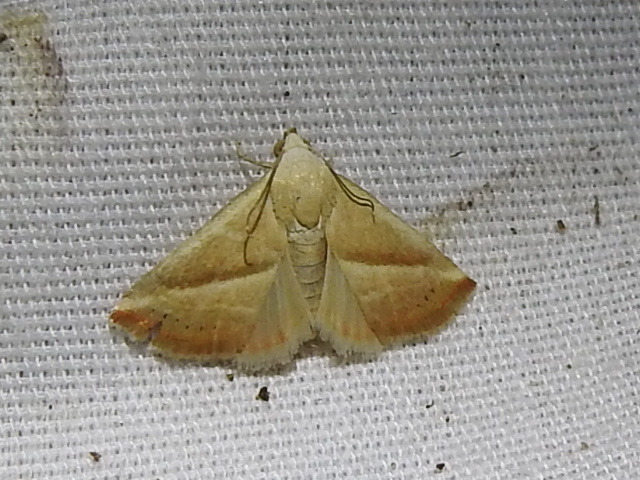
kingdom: Animalia
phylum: Arthropoda
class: Insecta
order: Lepidoptera
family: Noctuidae
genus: Eublemma
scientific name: Eublemma recta
